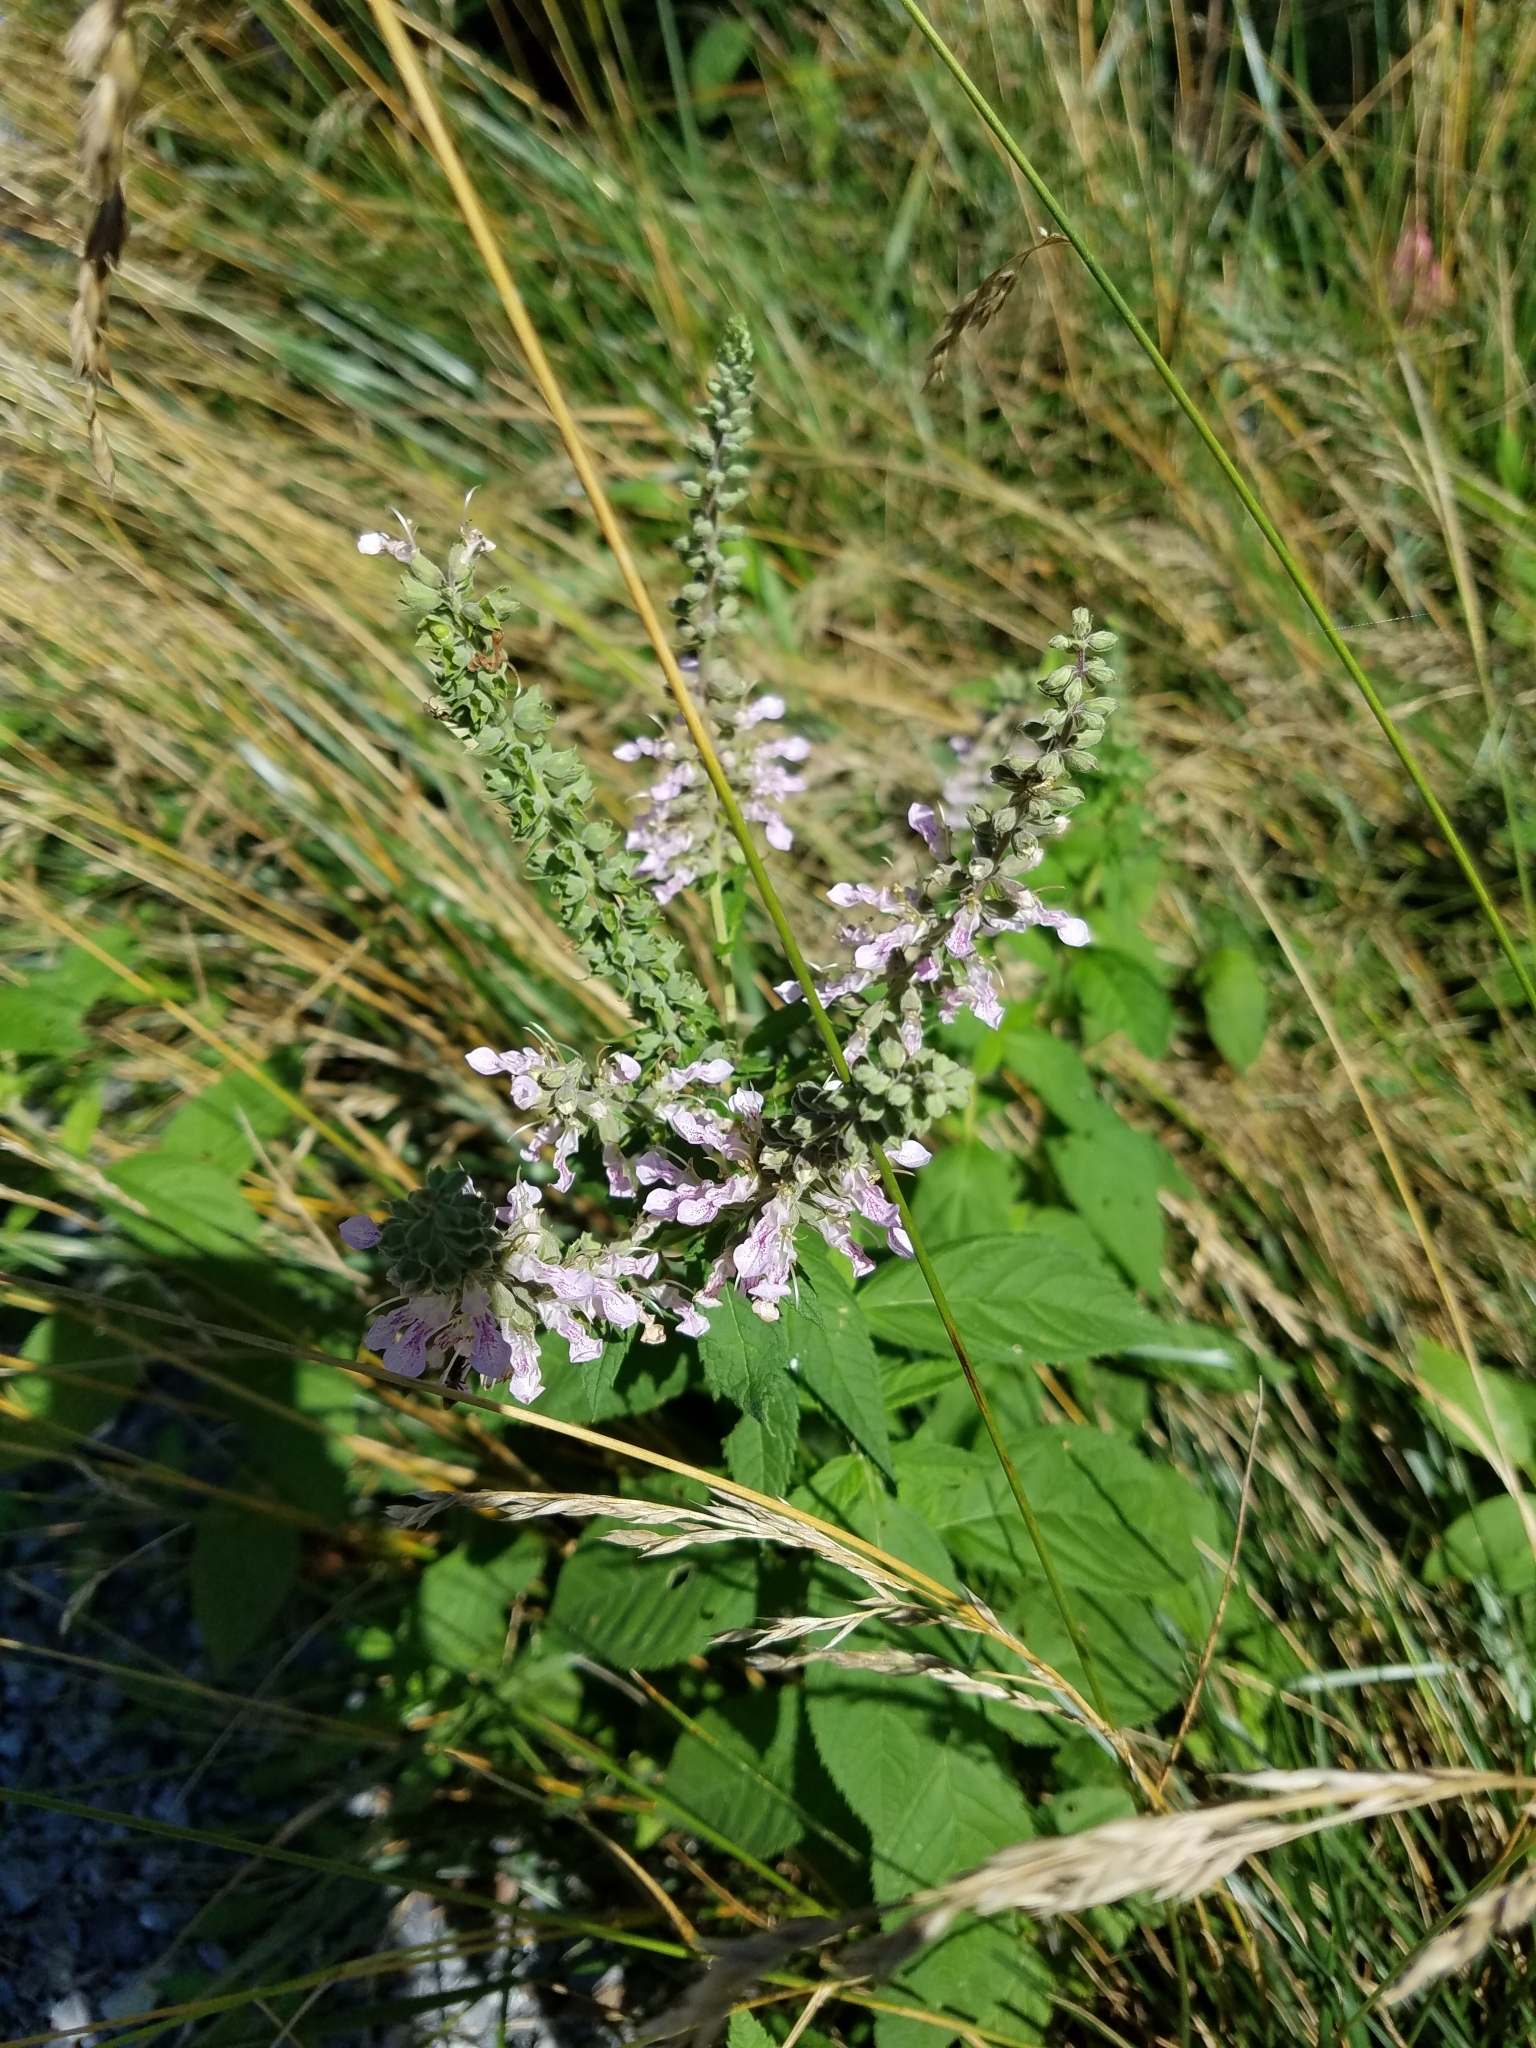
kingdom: Plantae
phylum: Tracheophyta
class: Magnoliopsida
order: Lamiales
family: Lamiaceae
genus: Teucrium
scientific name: Teucrium canadense
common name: American germander
